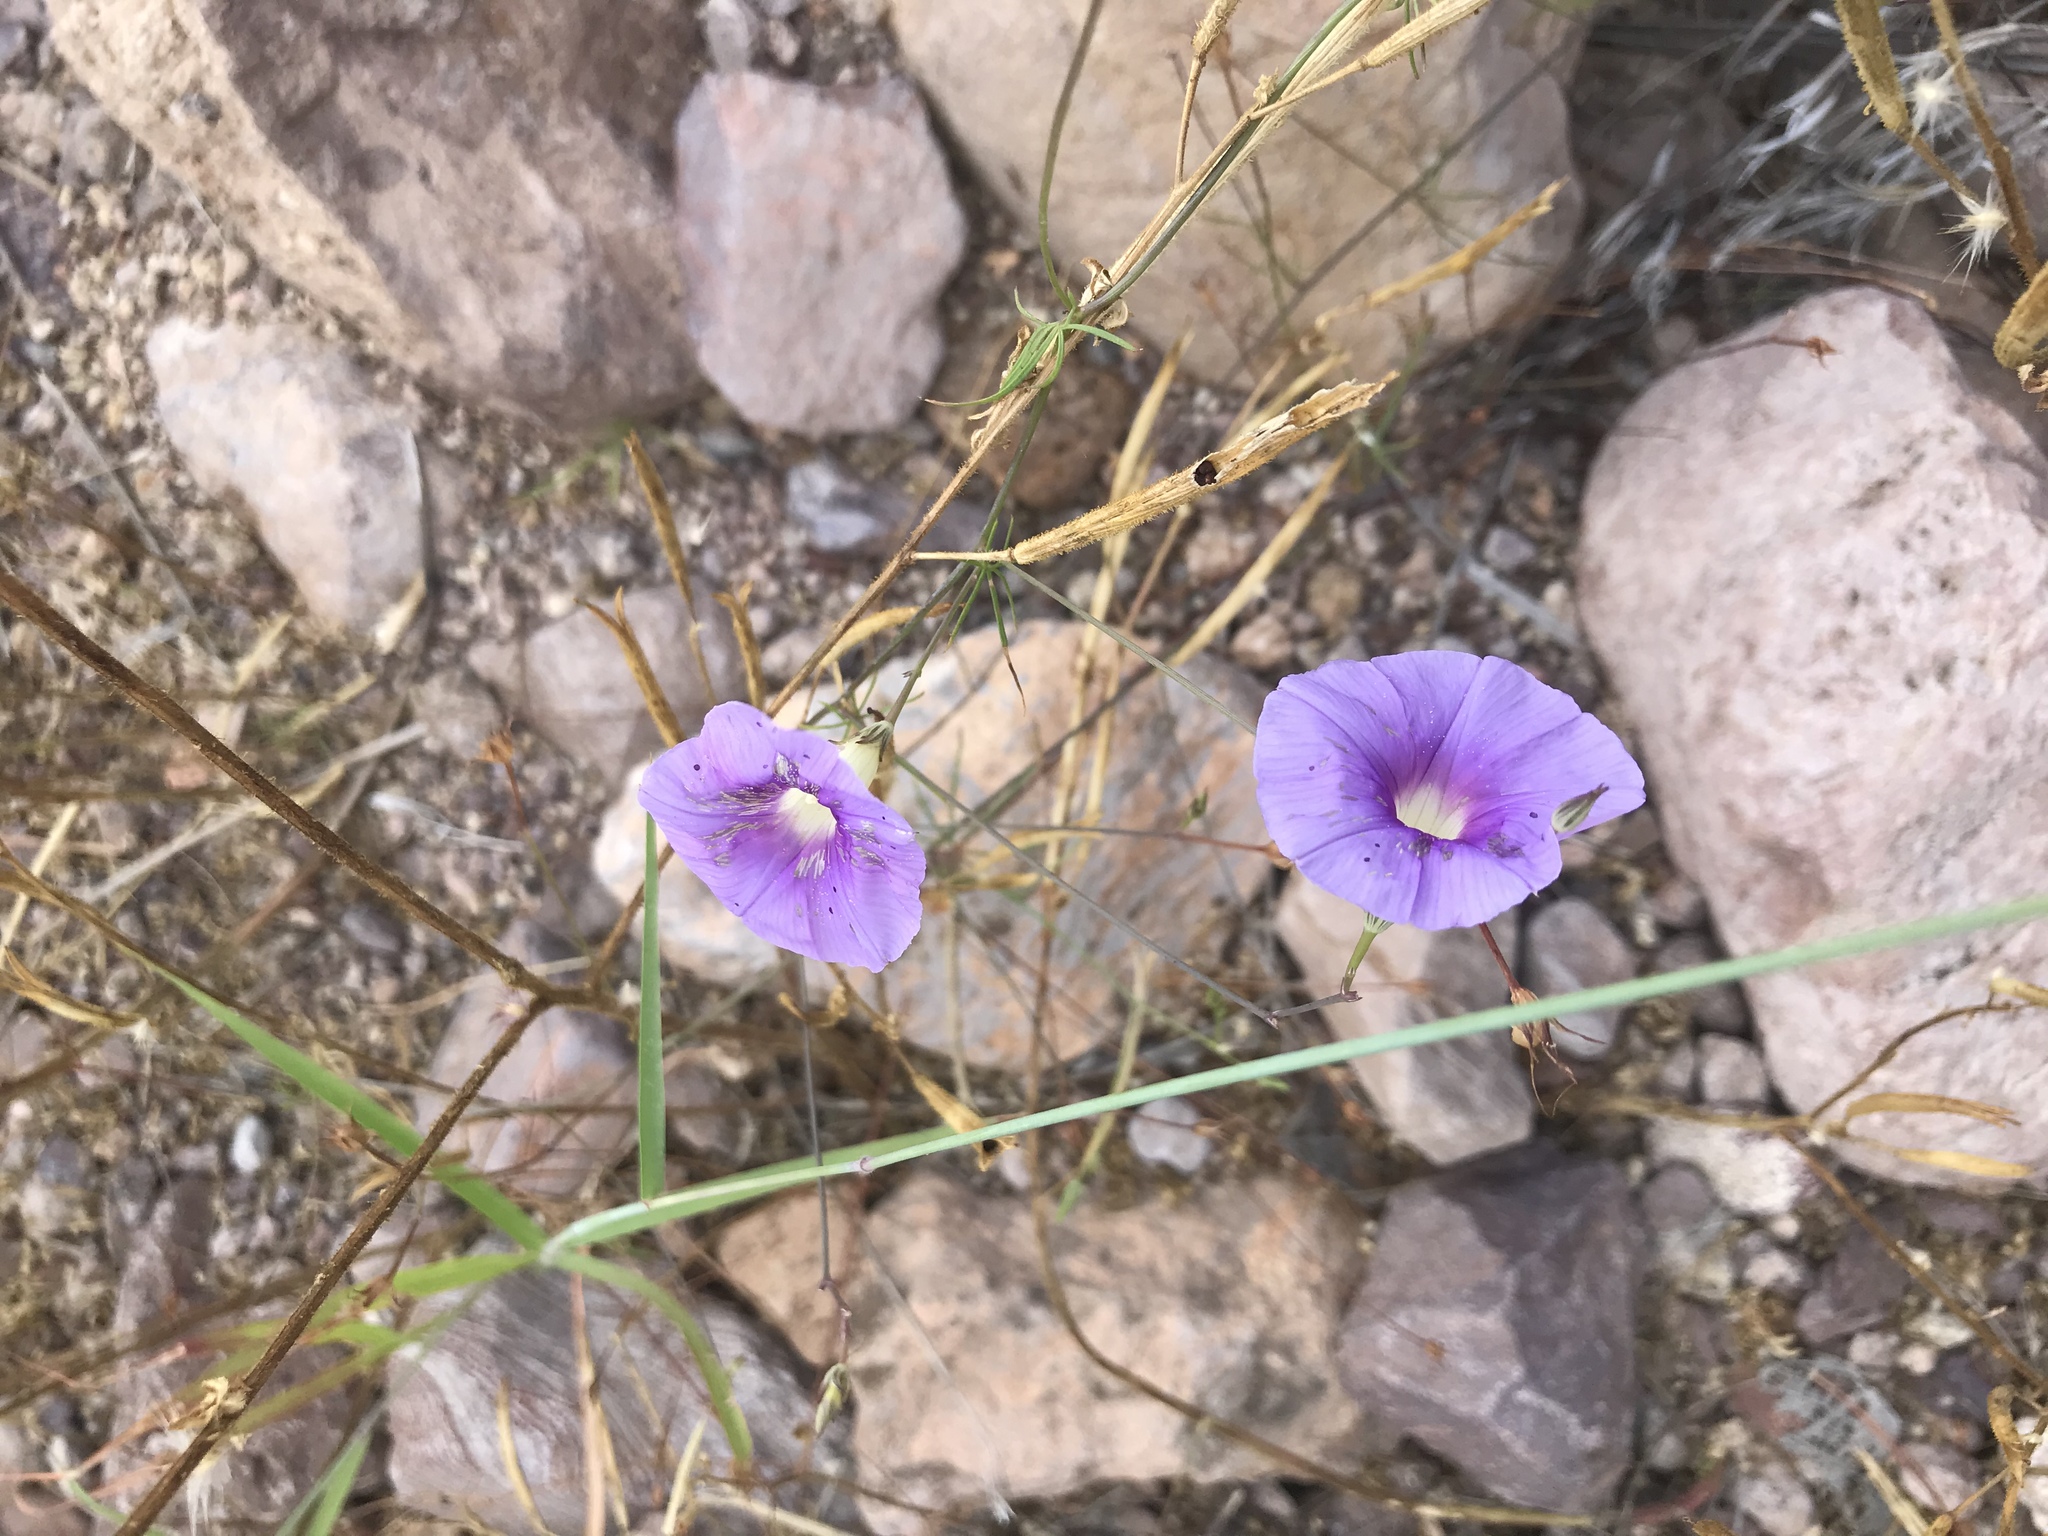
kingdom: Plantae
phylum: Tracheophyta
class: Magnoliopsida
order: Solanales
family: Convolvulaceae
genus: Ipomoea
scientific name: Ipomoea ternifolia
